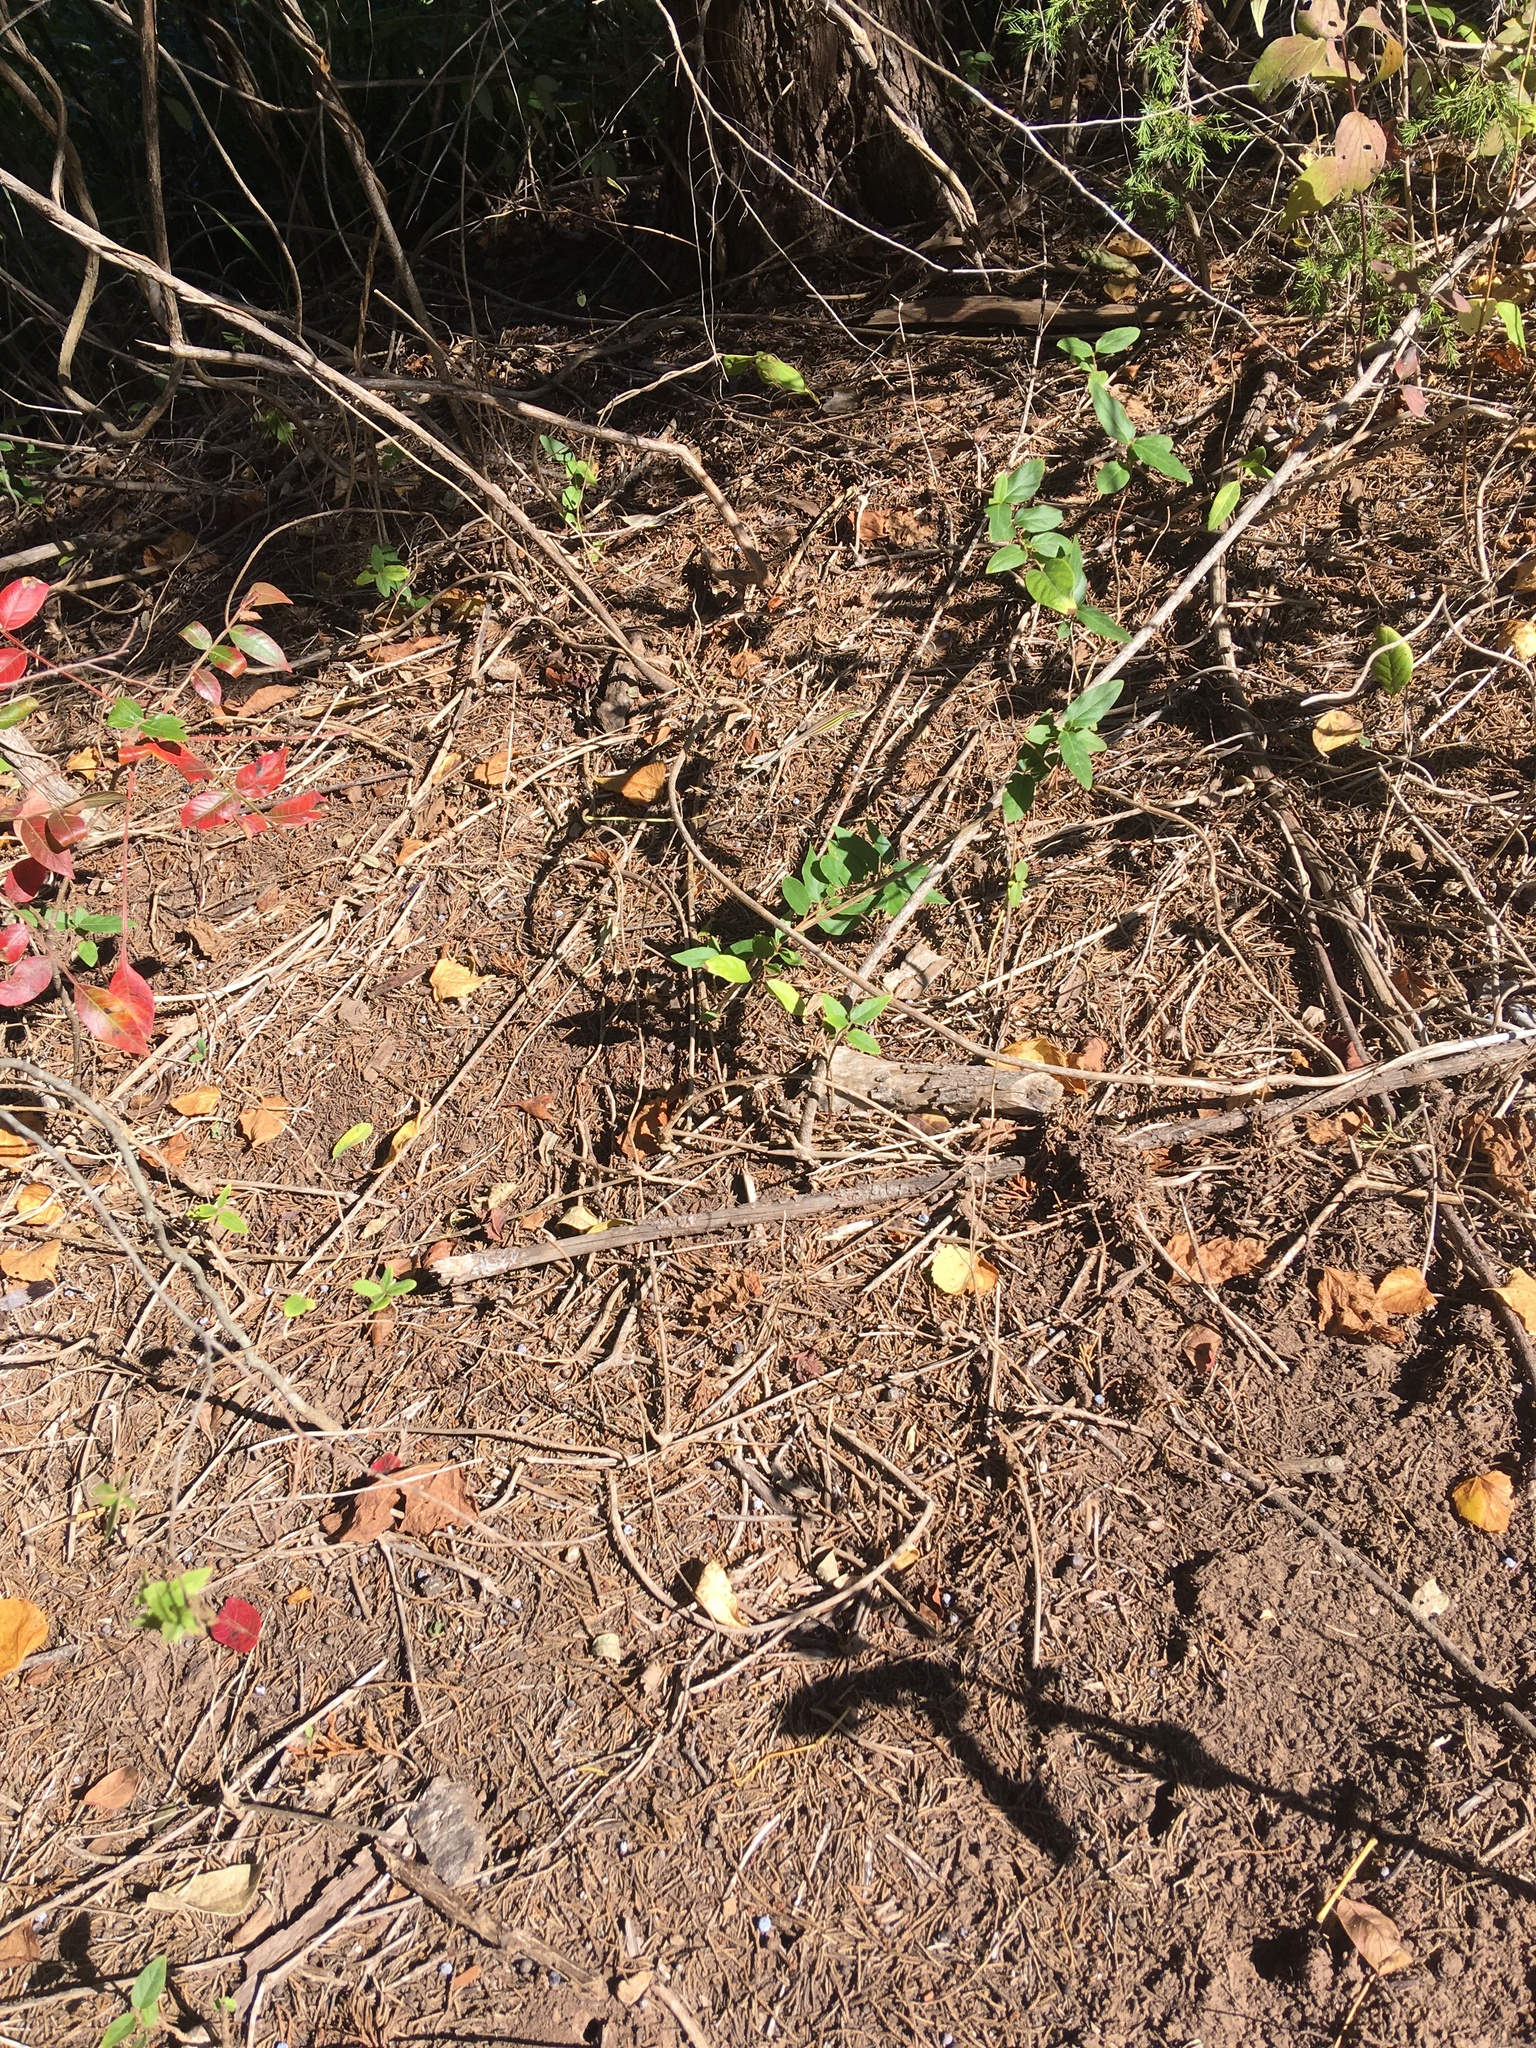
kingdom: Animalia
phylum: Chordata
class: Squamata
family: Teiidae
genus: Aspidoscelis
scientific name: Aspidoscelis sexlineatus
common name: Six-lined racerunner
